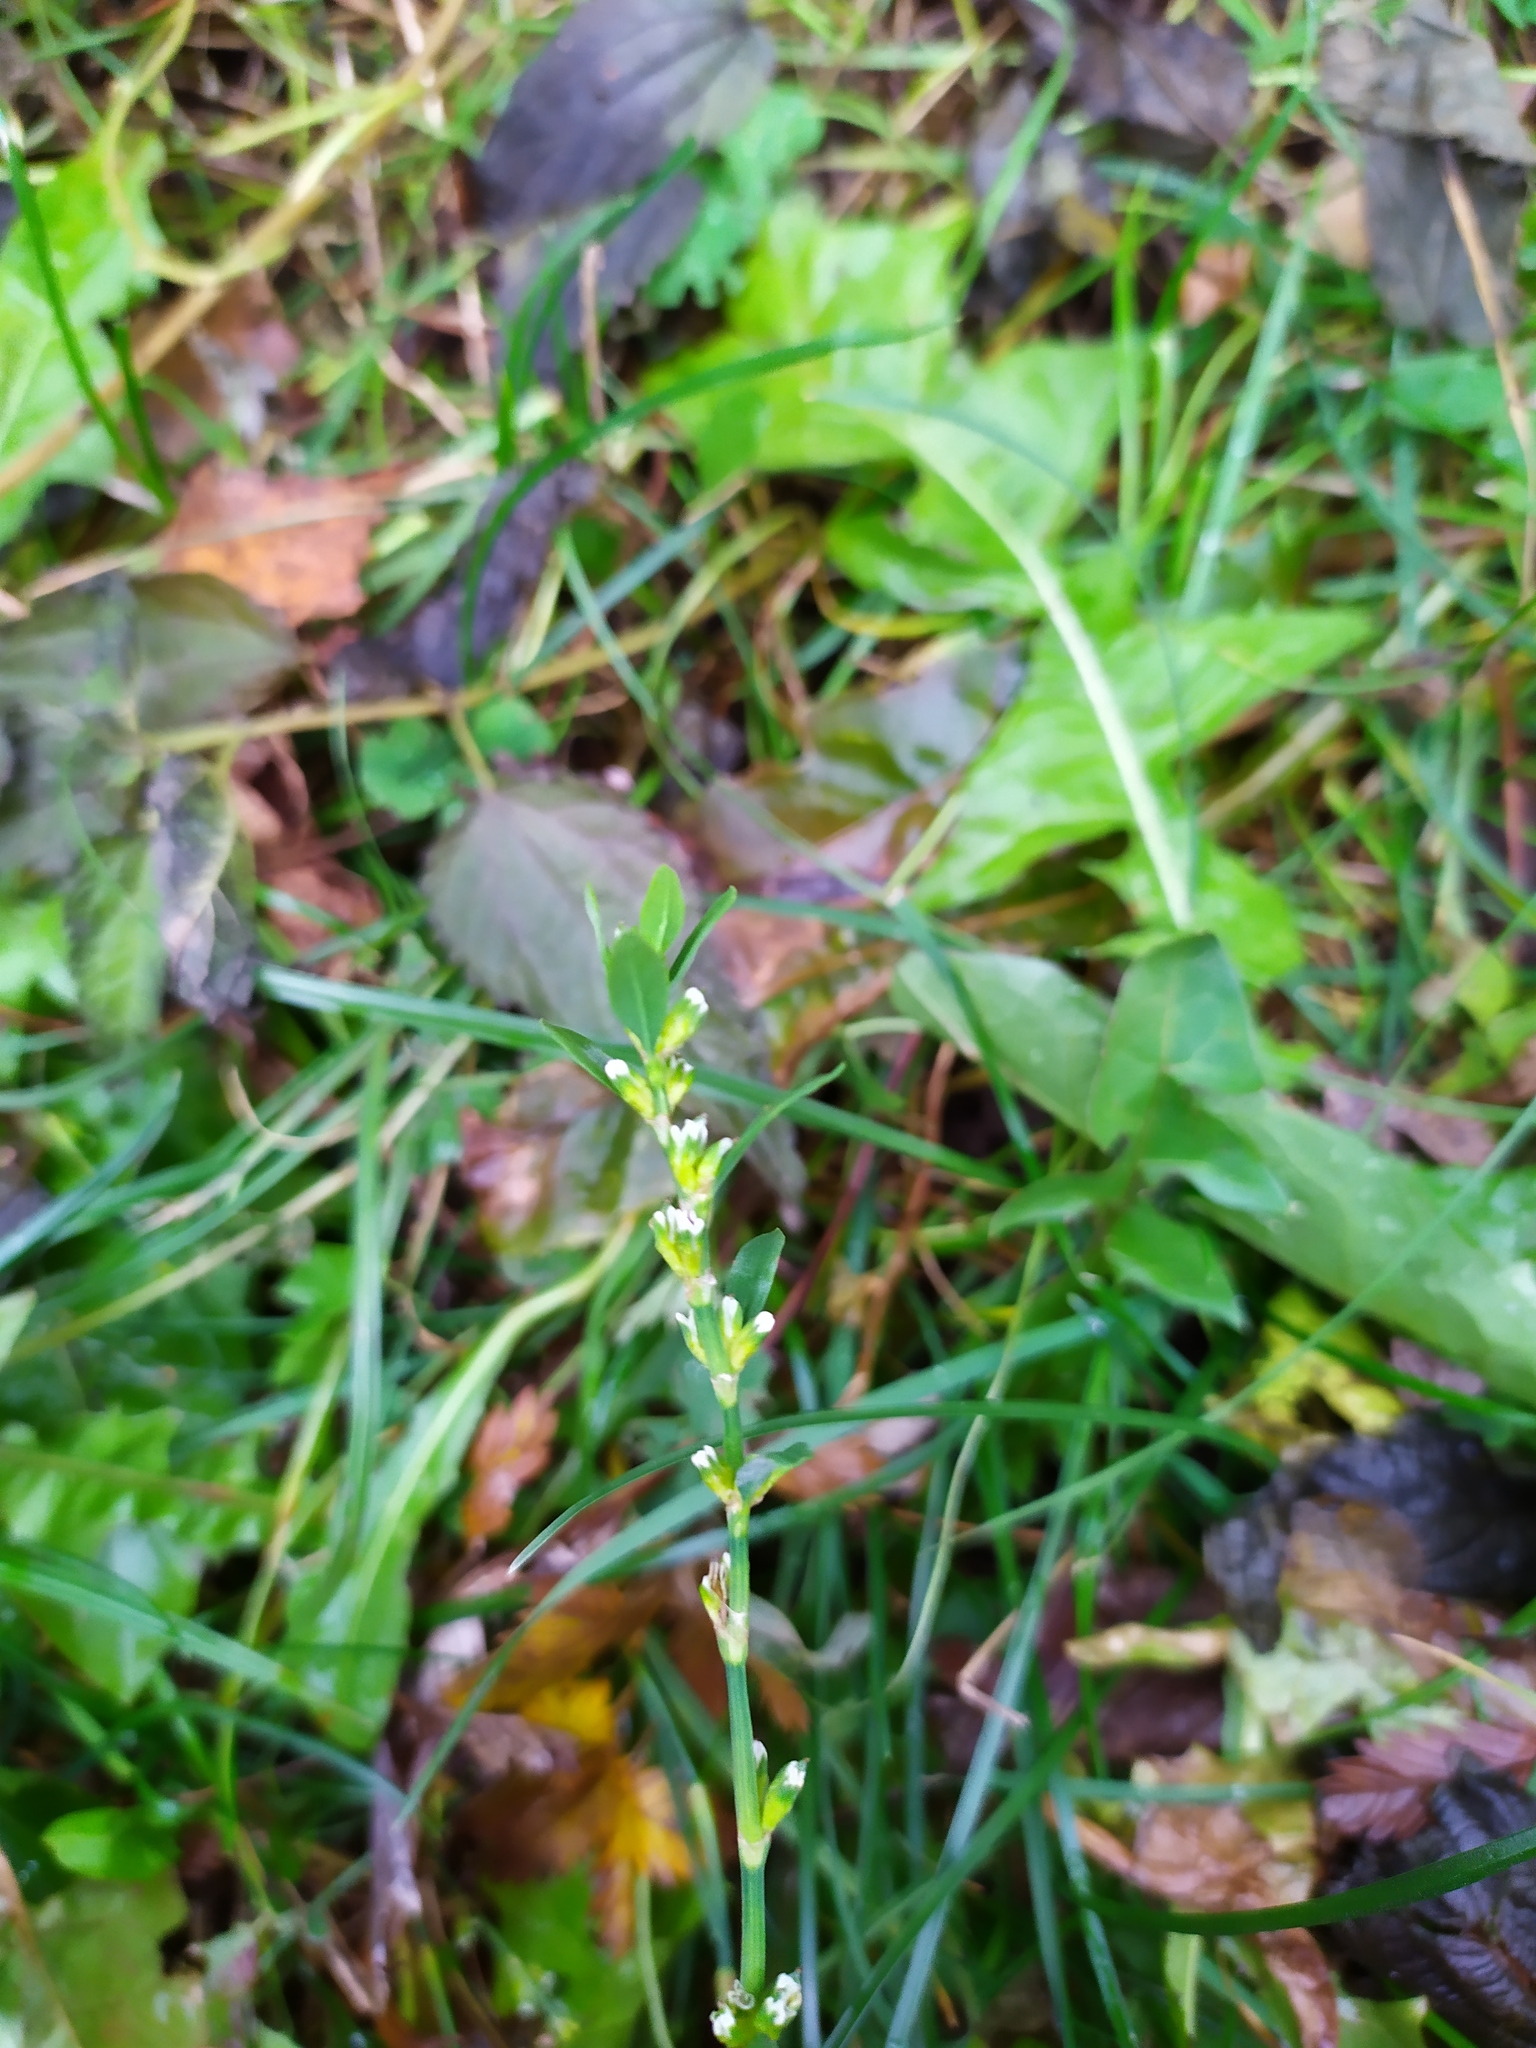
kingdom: Plantae
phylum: Tracheophyta
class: Magnoliopsida
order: Caryophyllales
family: Polygonaceae
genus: Polygonum
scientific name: Polygonum
